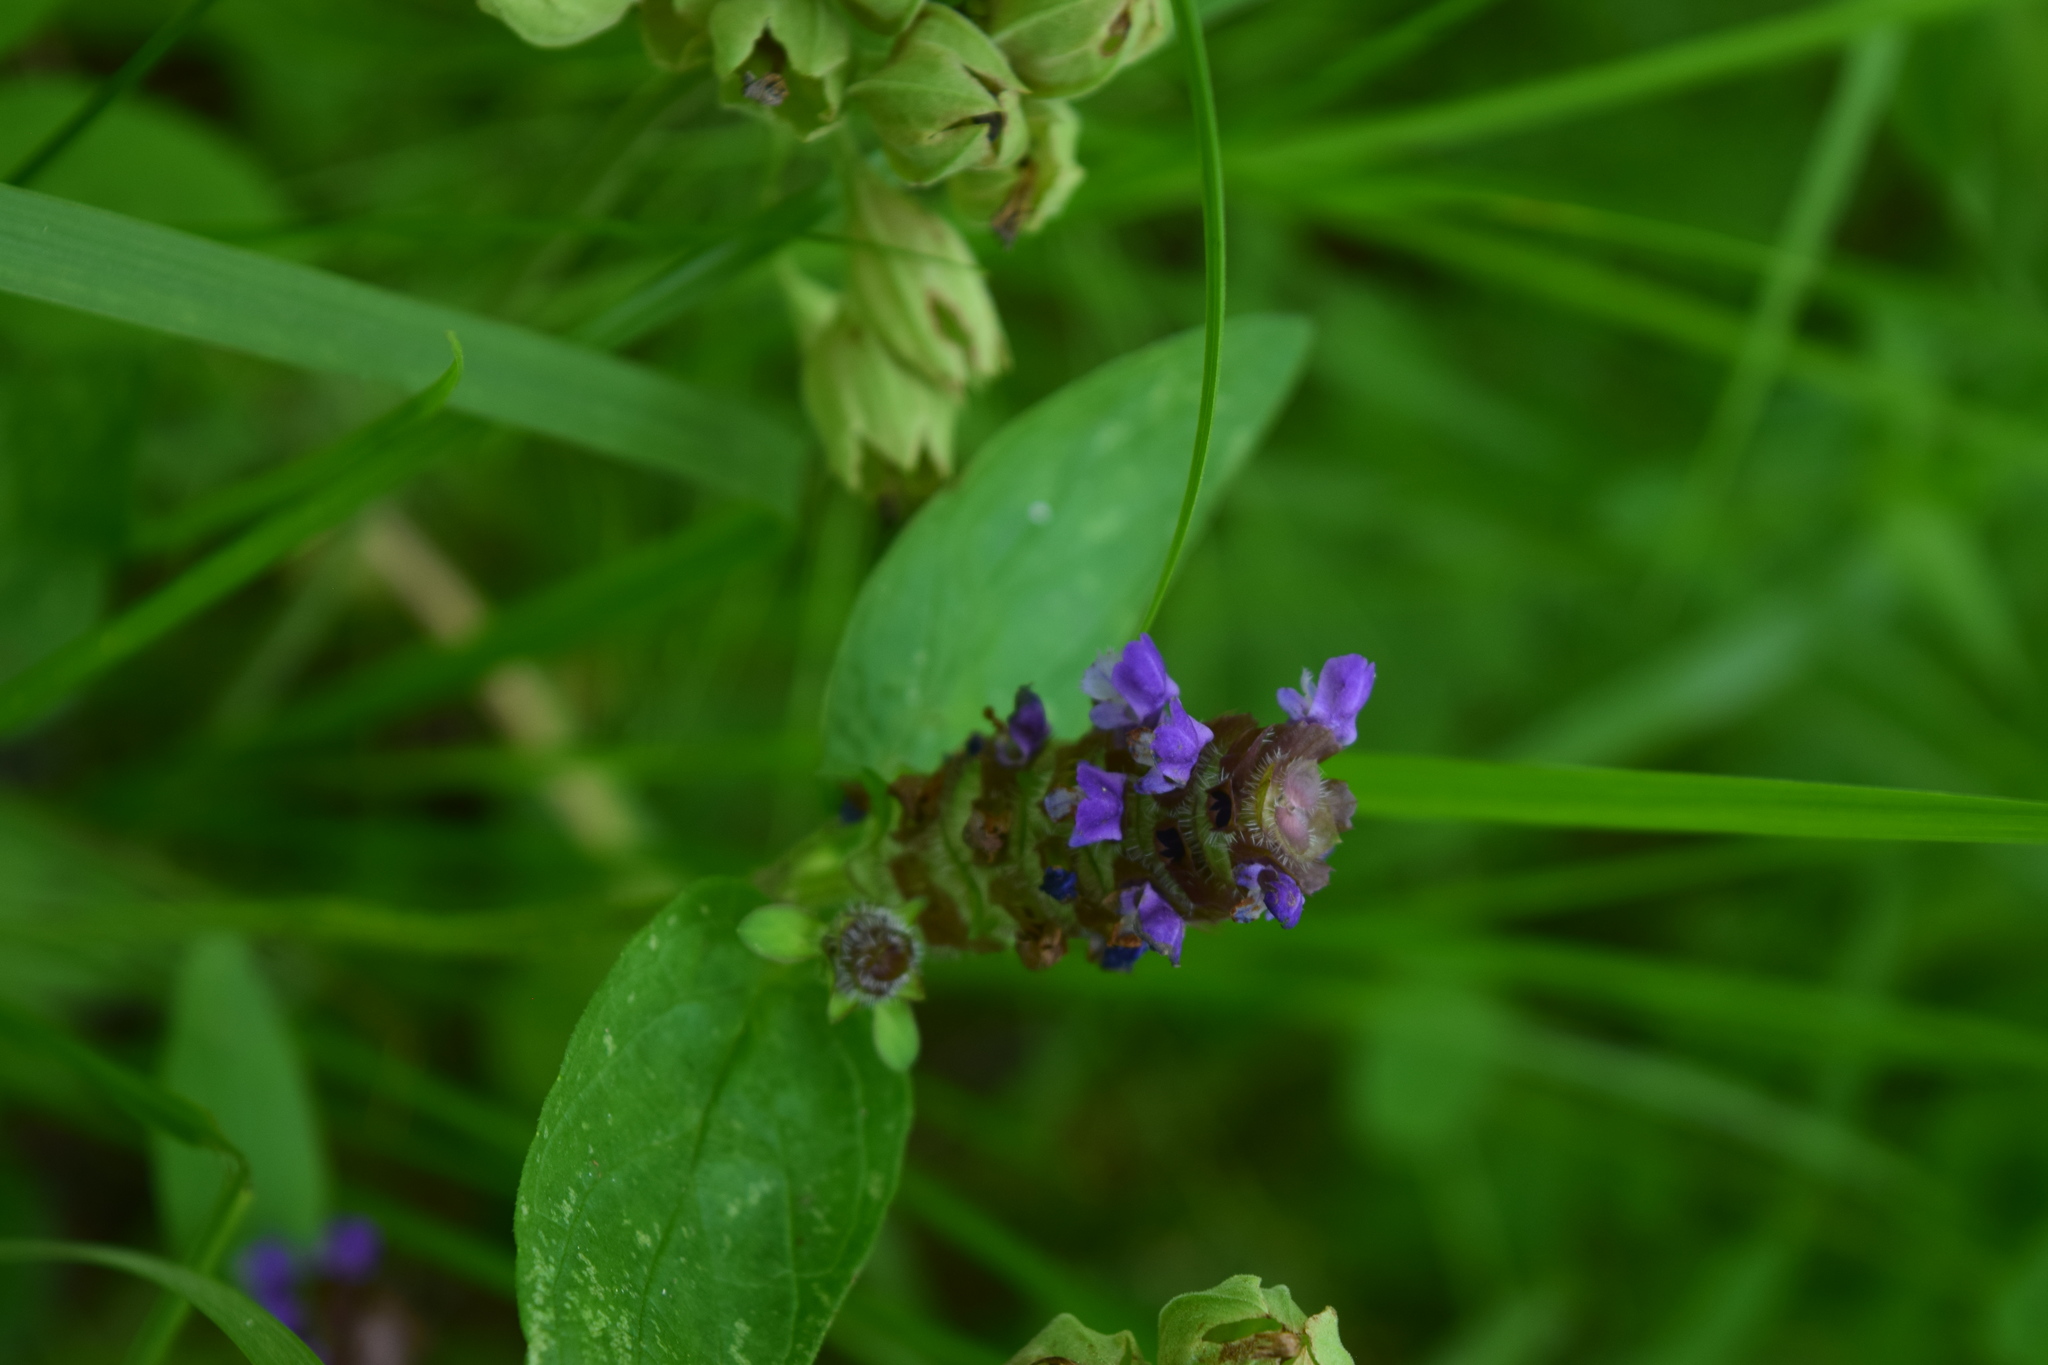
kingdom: Plantae
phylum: Tracheophyta
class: Magnoliopsida
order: Lamiales
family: Lamiaceae
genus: Prunella
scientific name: Prunella vulgaris
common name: Heal-all
